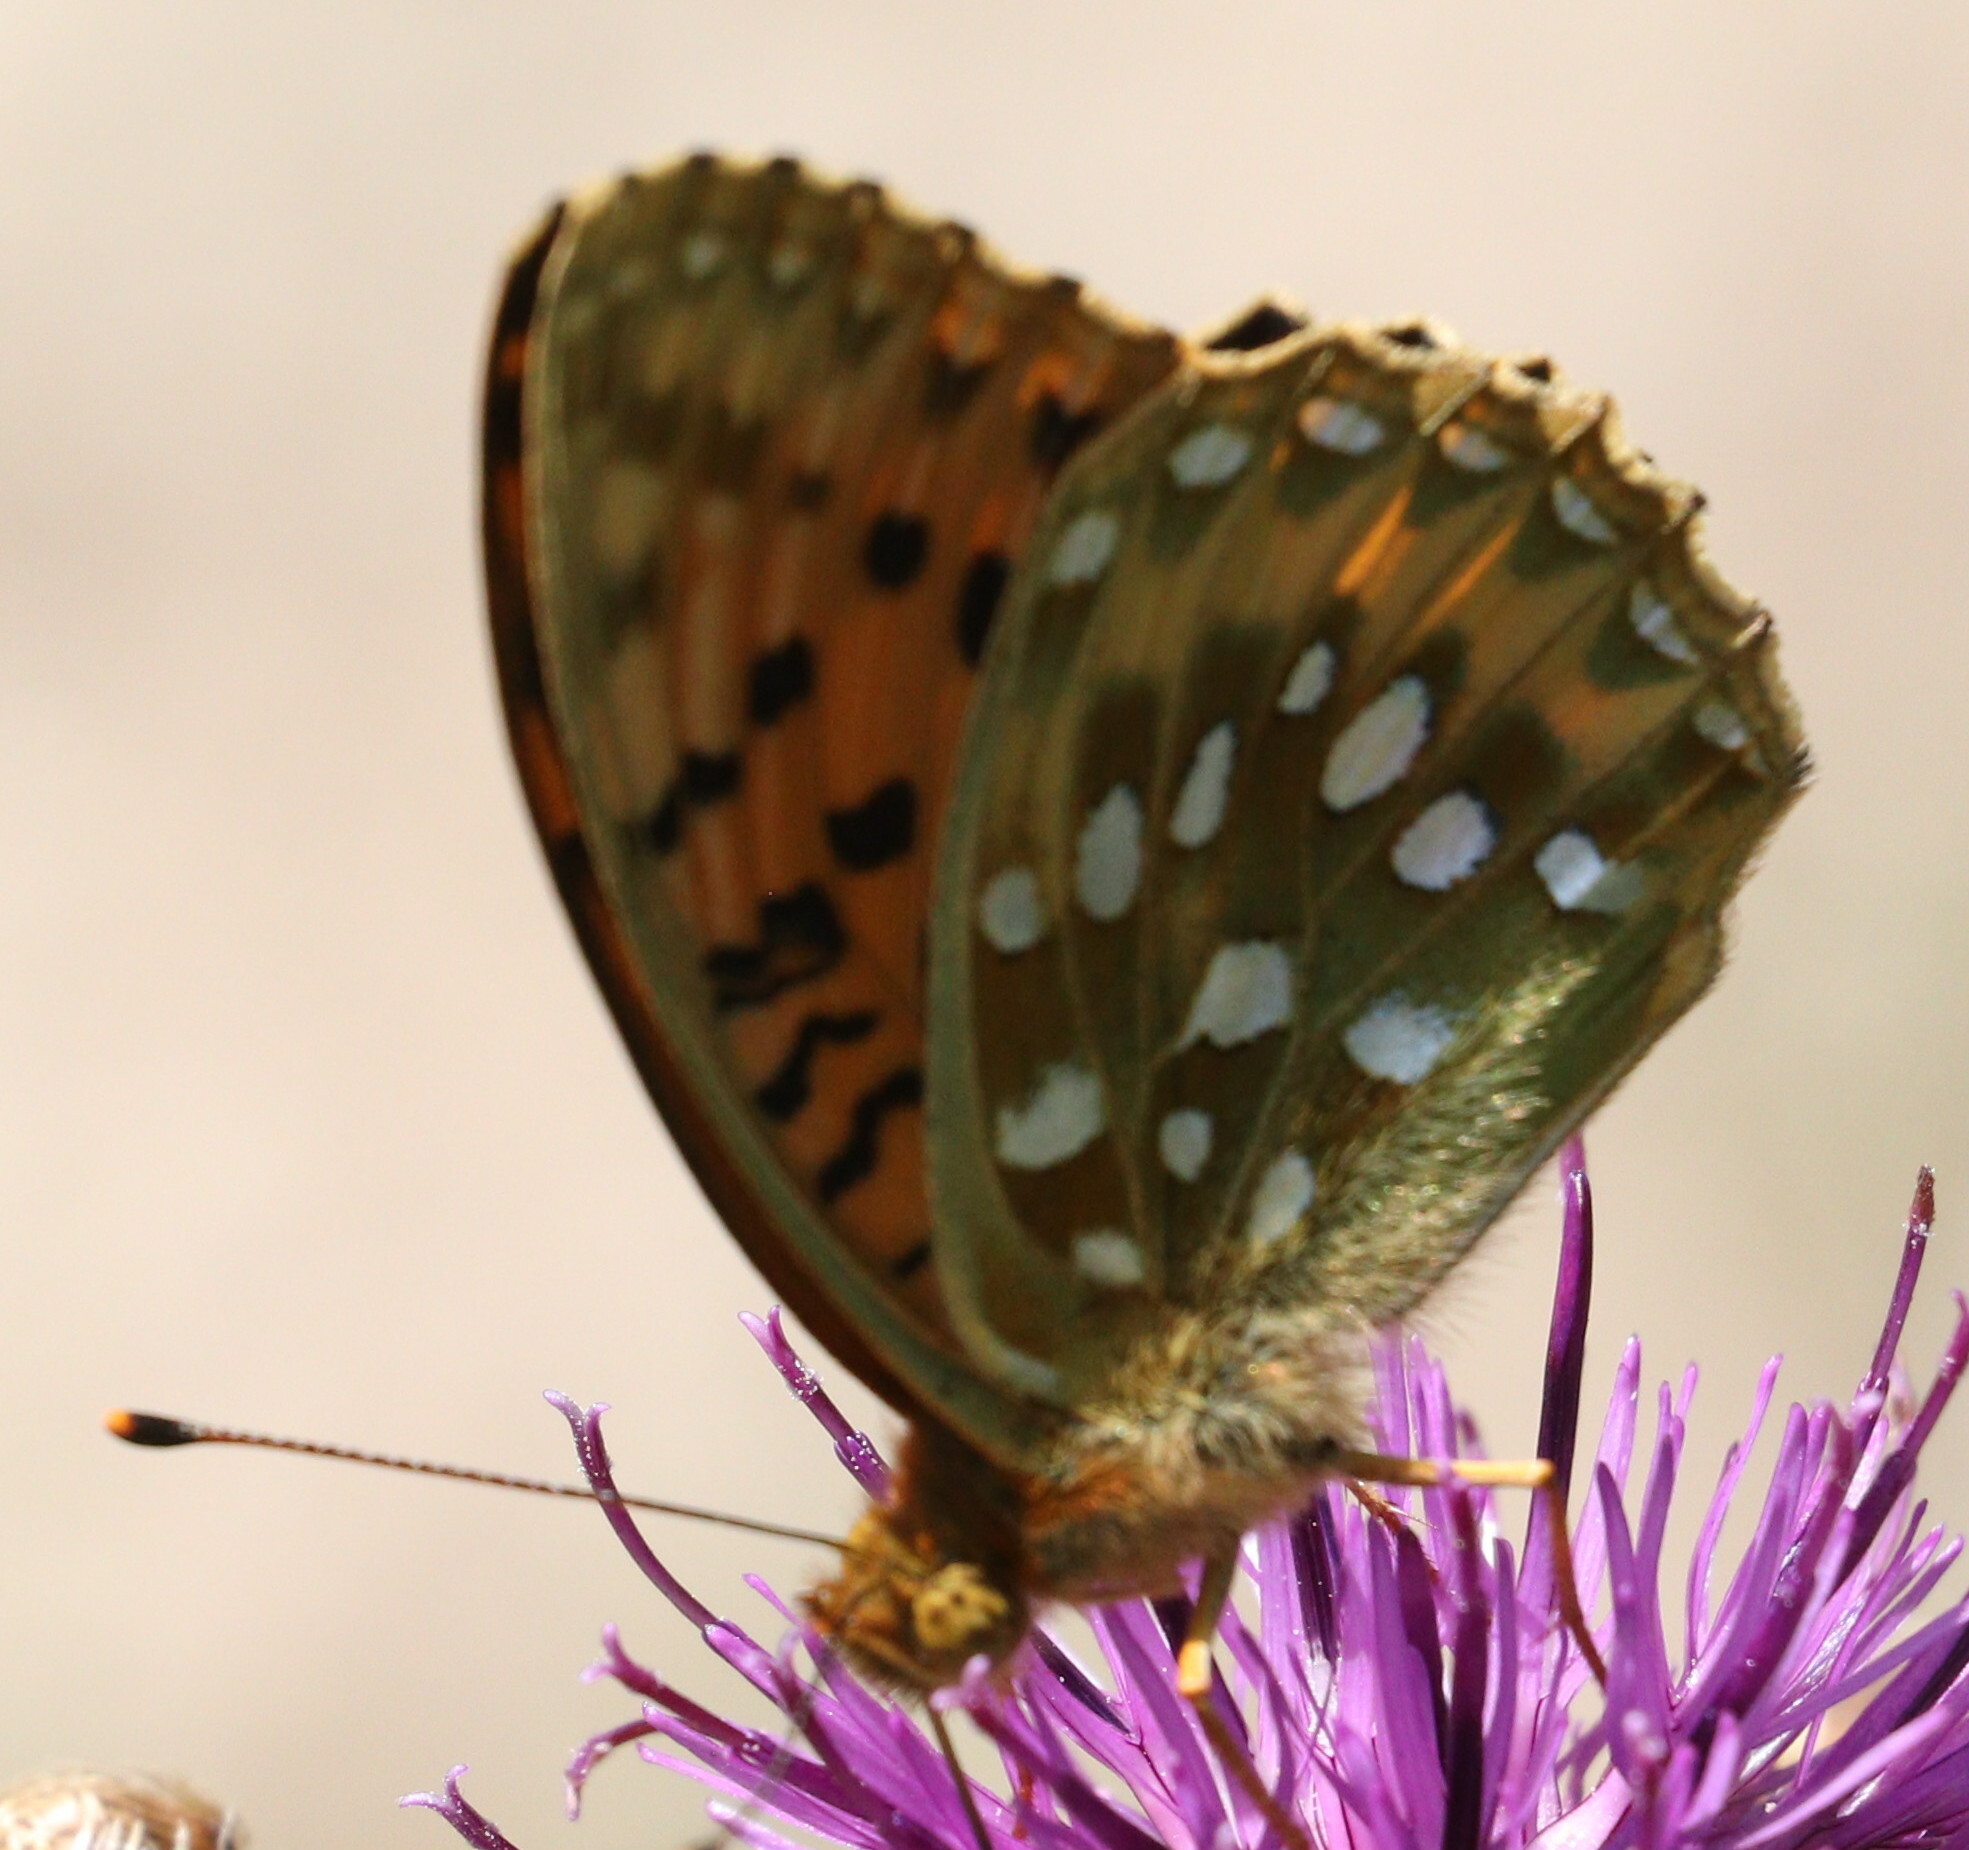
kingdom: Animalia
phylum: Arthropoda
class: Insecta
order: Lepidoptera
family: Nymphalidae
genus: Speyeria
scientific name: Speyeria aglaja
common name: Dark green fritillary
